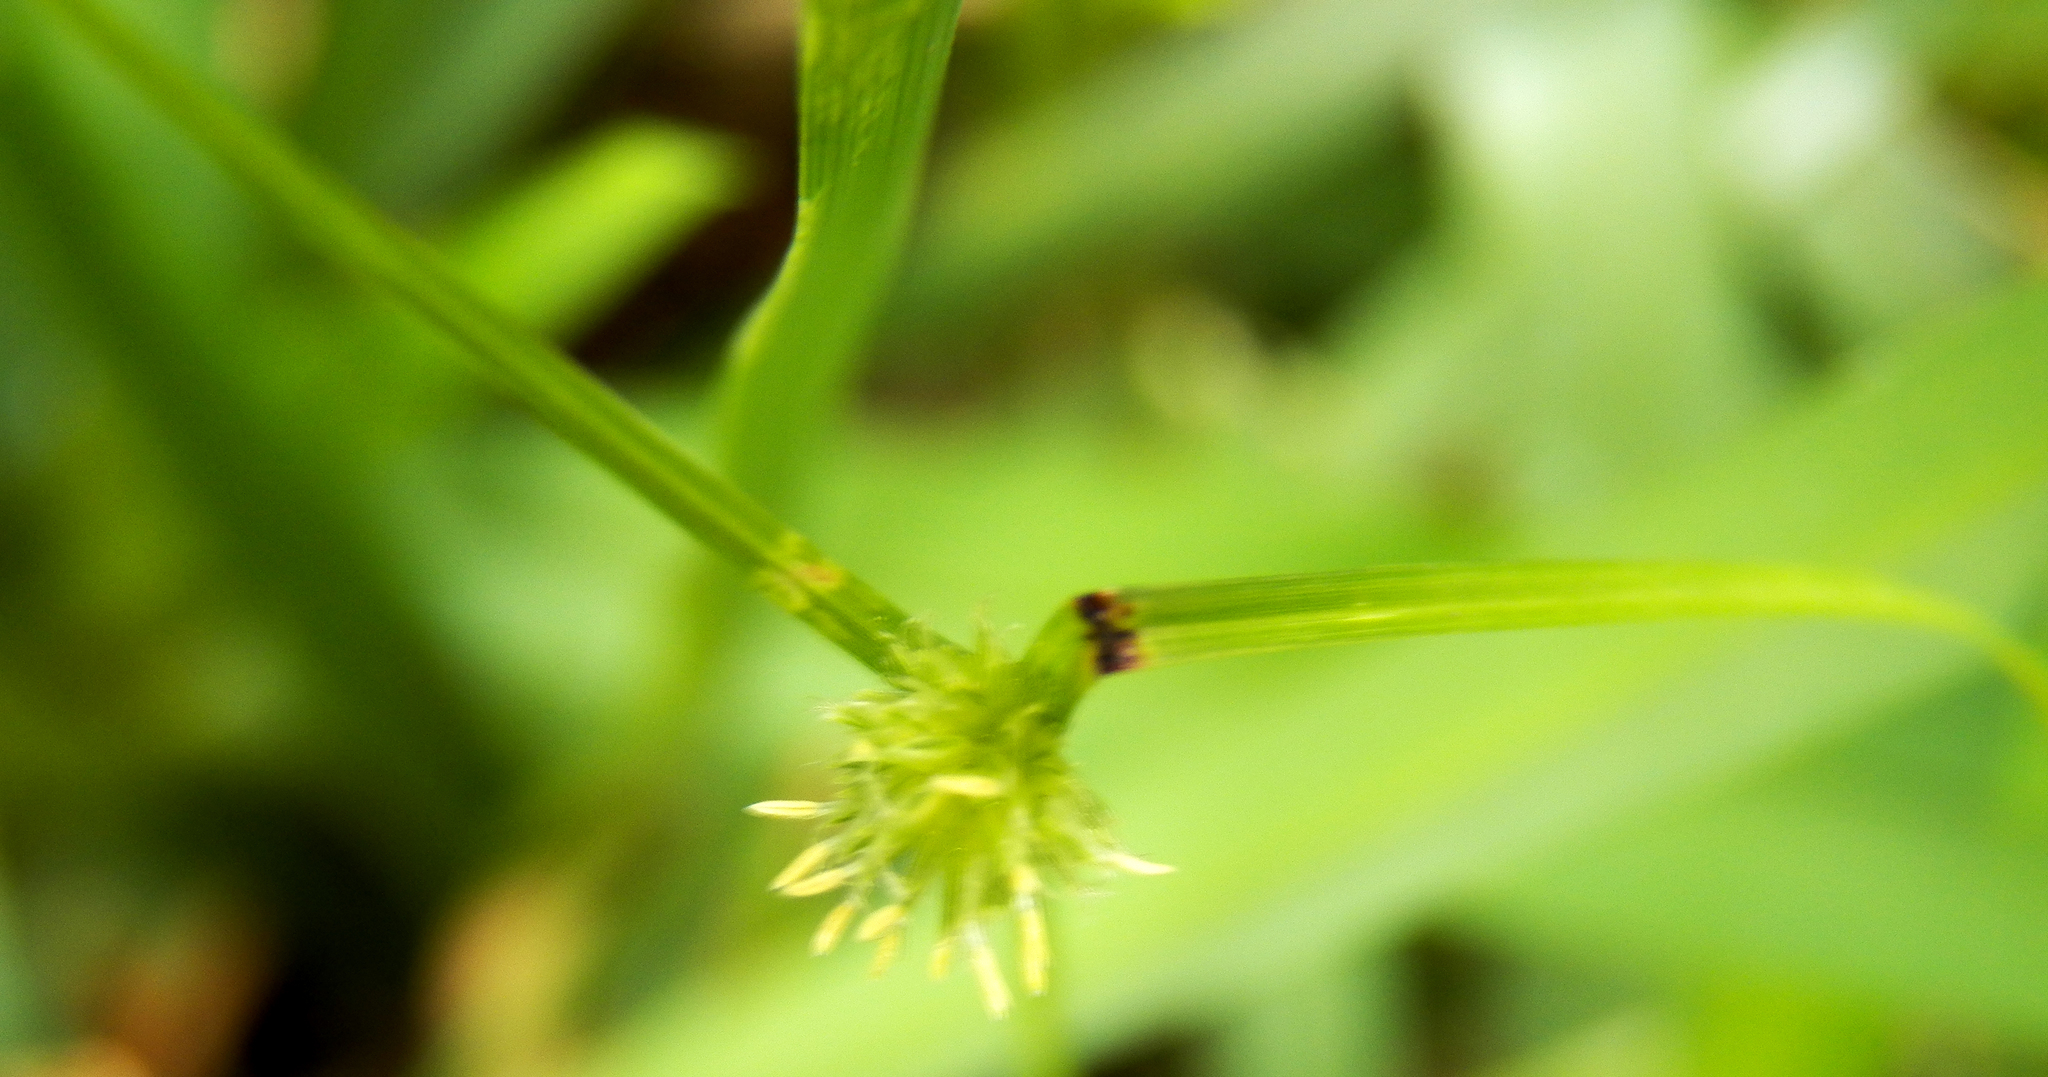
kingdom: Plantae
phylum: Tracheophyta
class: Liliopsida
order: Poales
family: Cyperaceae
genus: Cyperus
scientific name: Cyperus brevifolius
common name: Globe kyllinga
